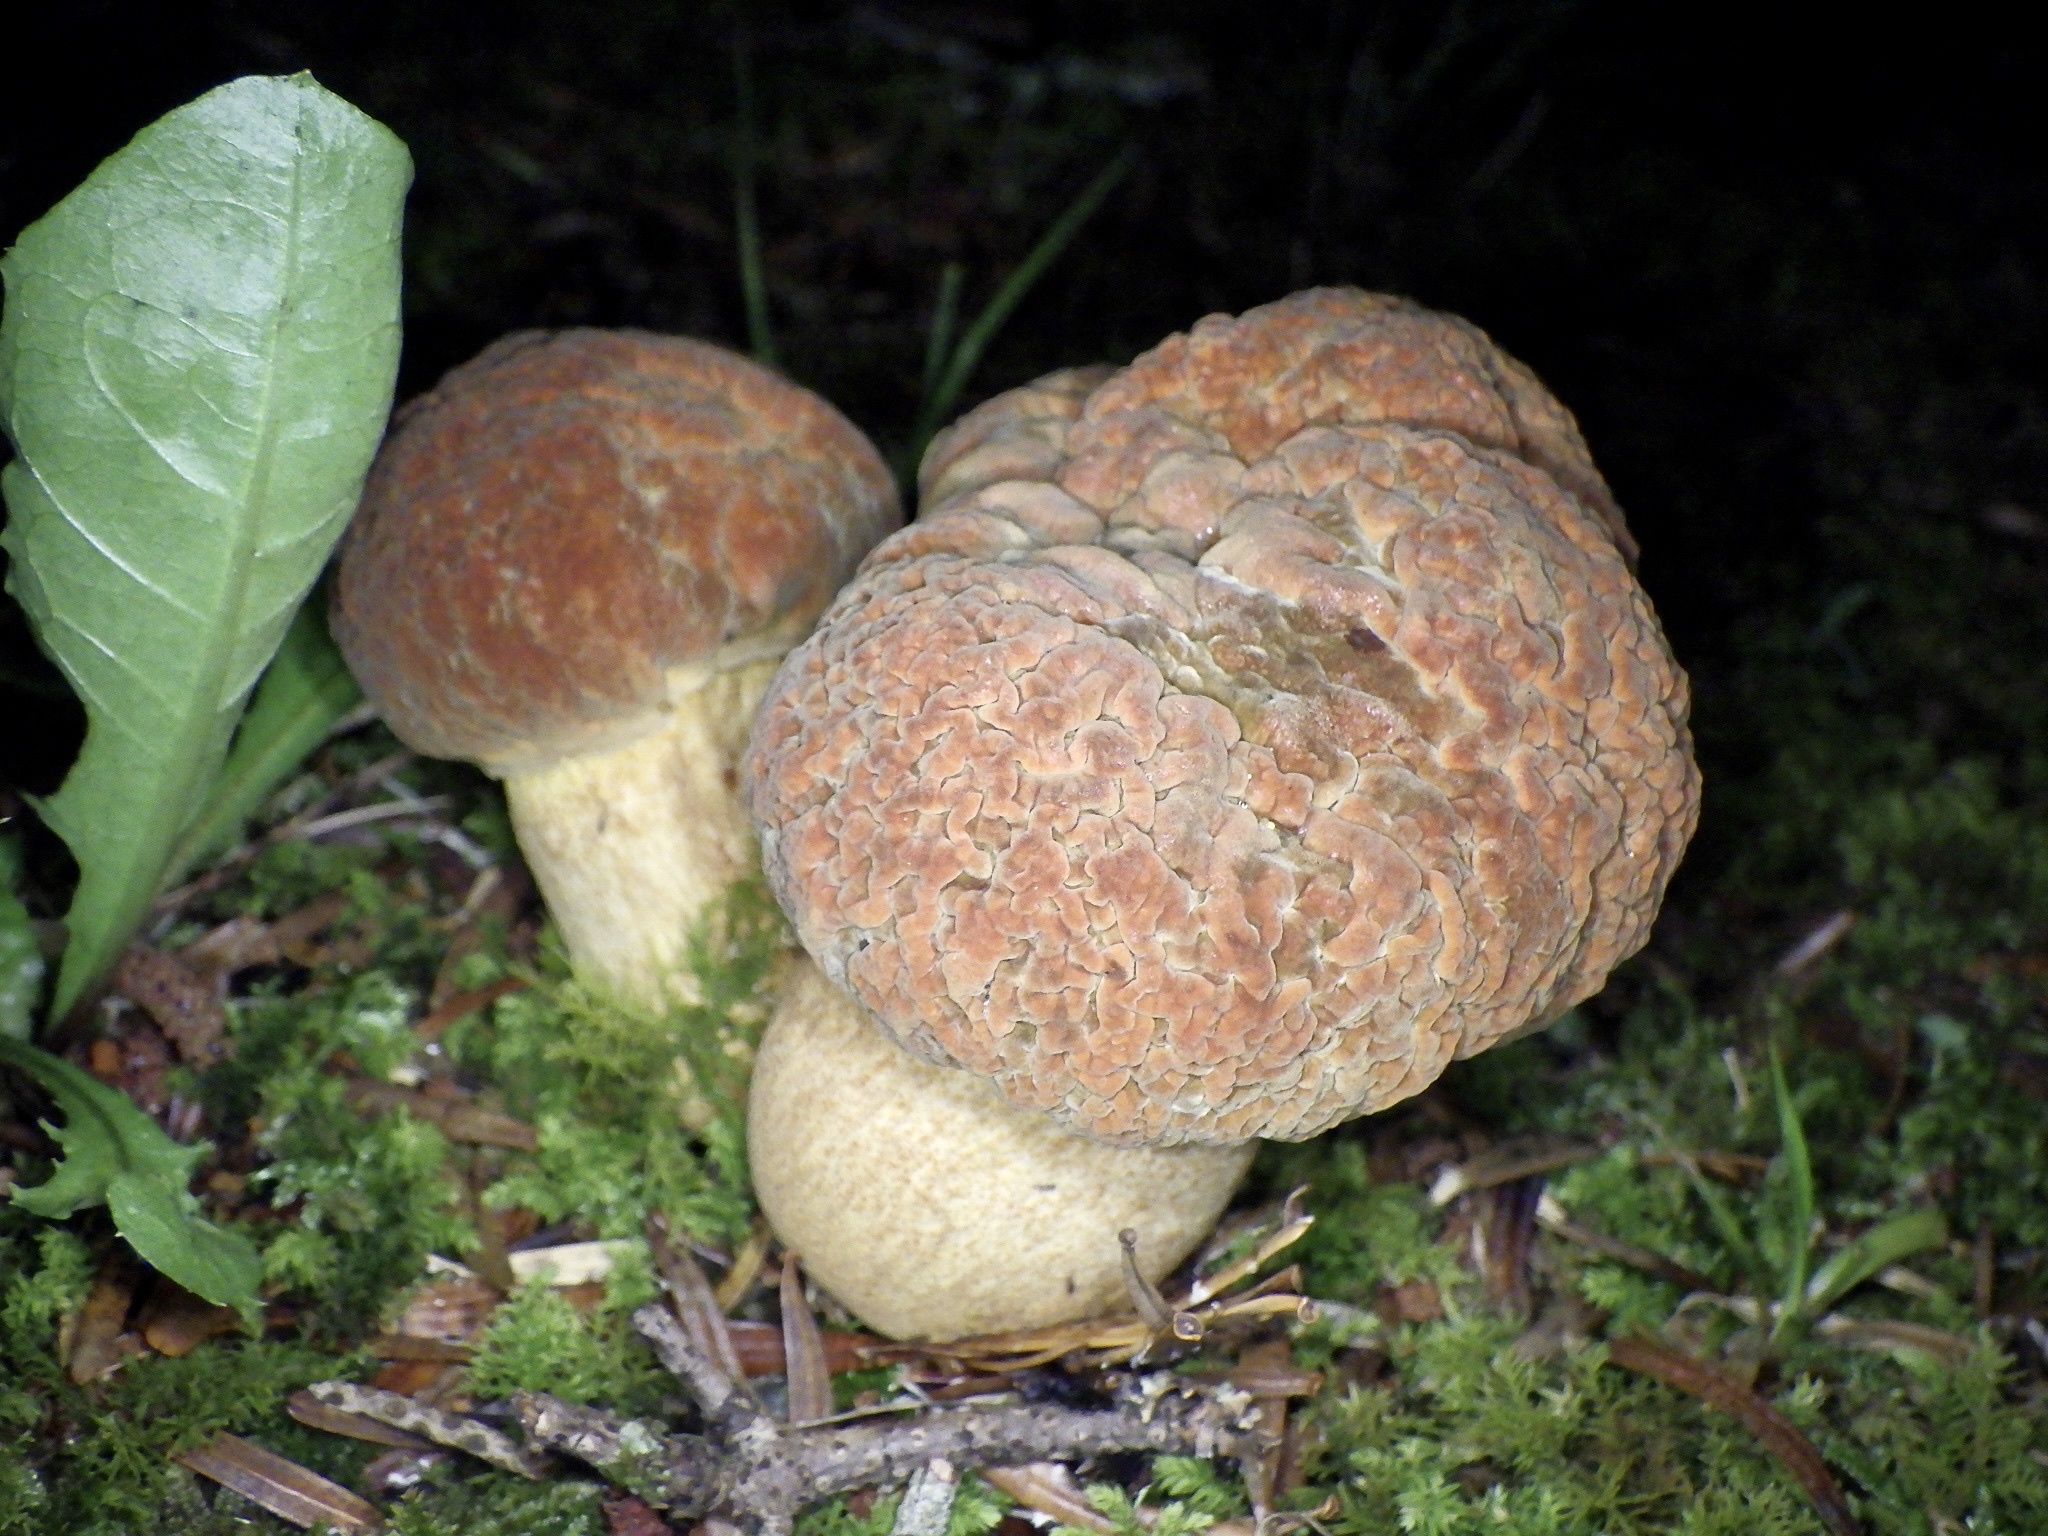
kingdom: Fungi
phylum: Basidiomycota
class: Agaricomycetes
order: Boletales
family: Boletaceae
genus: Rugiboletus
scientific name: Rugiboletus extremiorientalis
